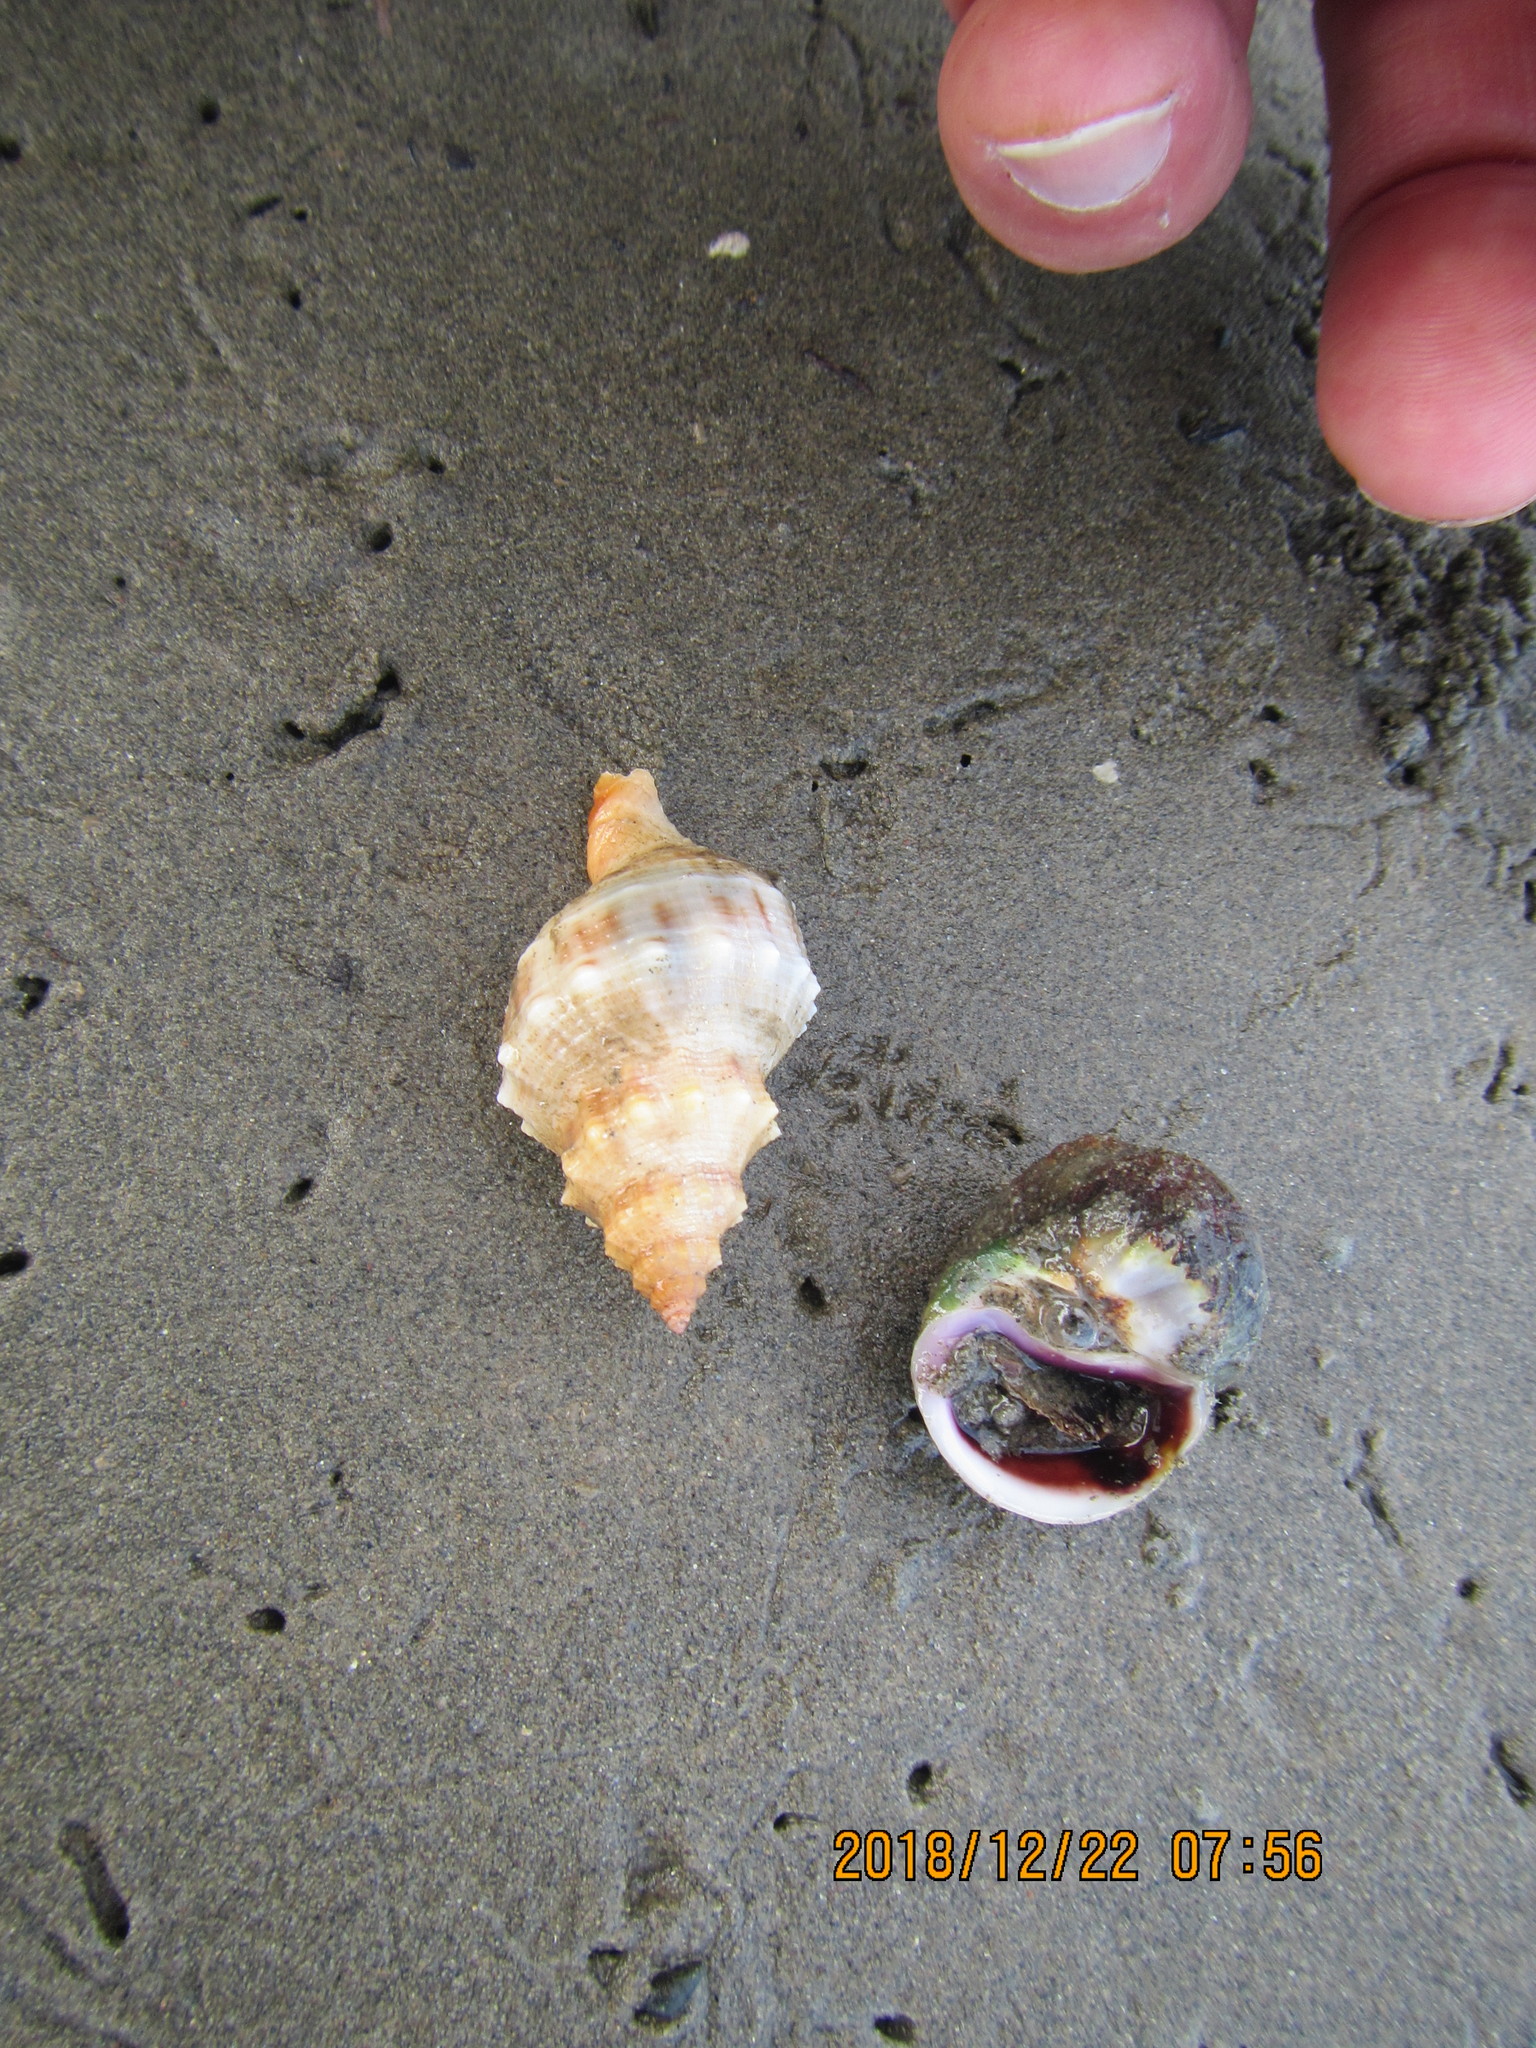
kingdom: Animalia
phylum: Mollusca
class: Gastropoda
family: Amphibolidae
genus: Amphibola
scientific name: Amphibola crenata
